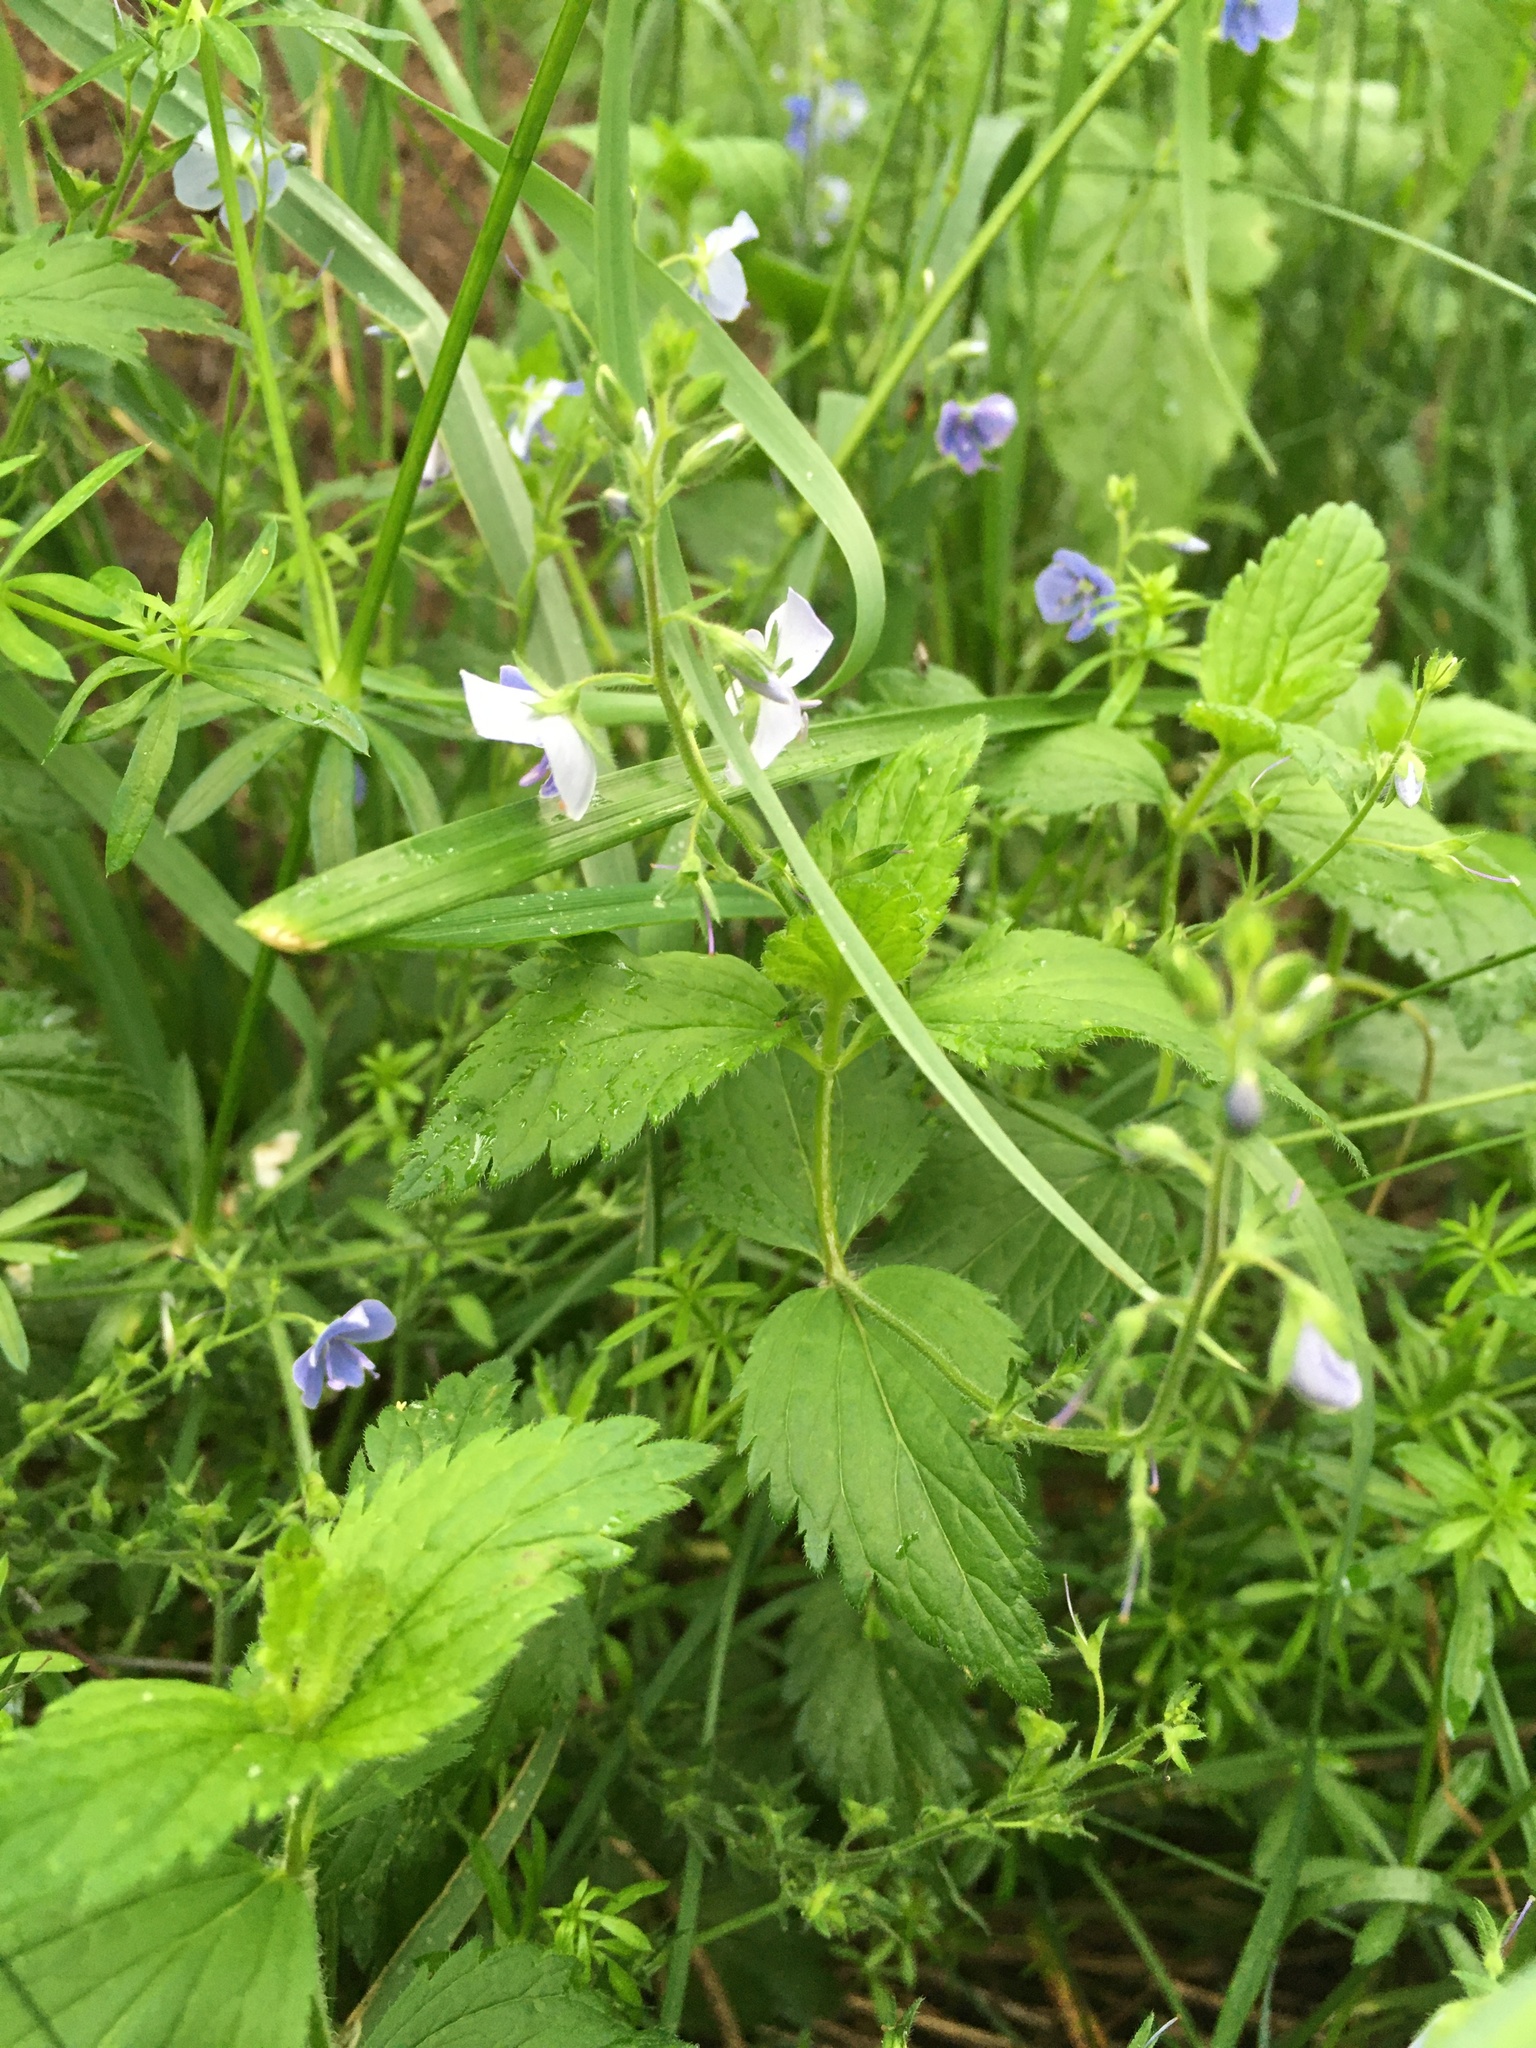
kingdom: Plantae
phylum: Tracheophyta
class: Magnoliopsida
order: Lamiales
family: Plantaginaceae
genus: Veronica
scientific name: Veronica chamaedrys
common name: Germander speedwell
